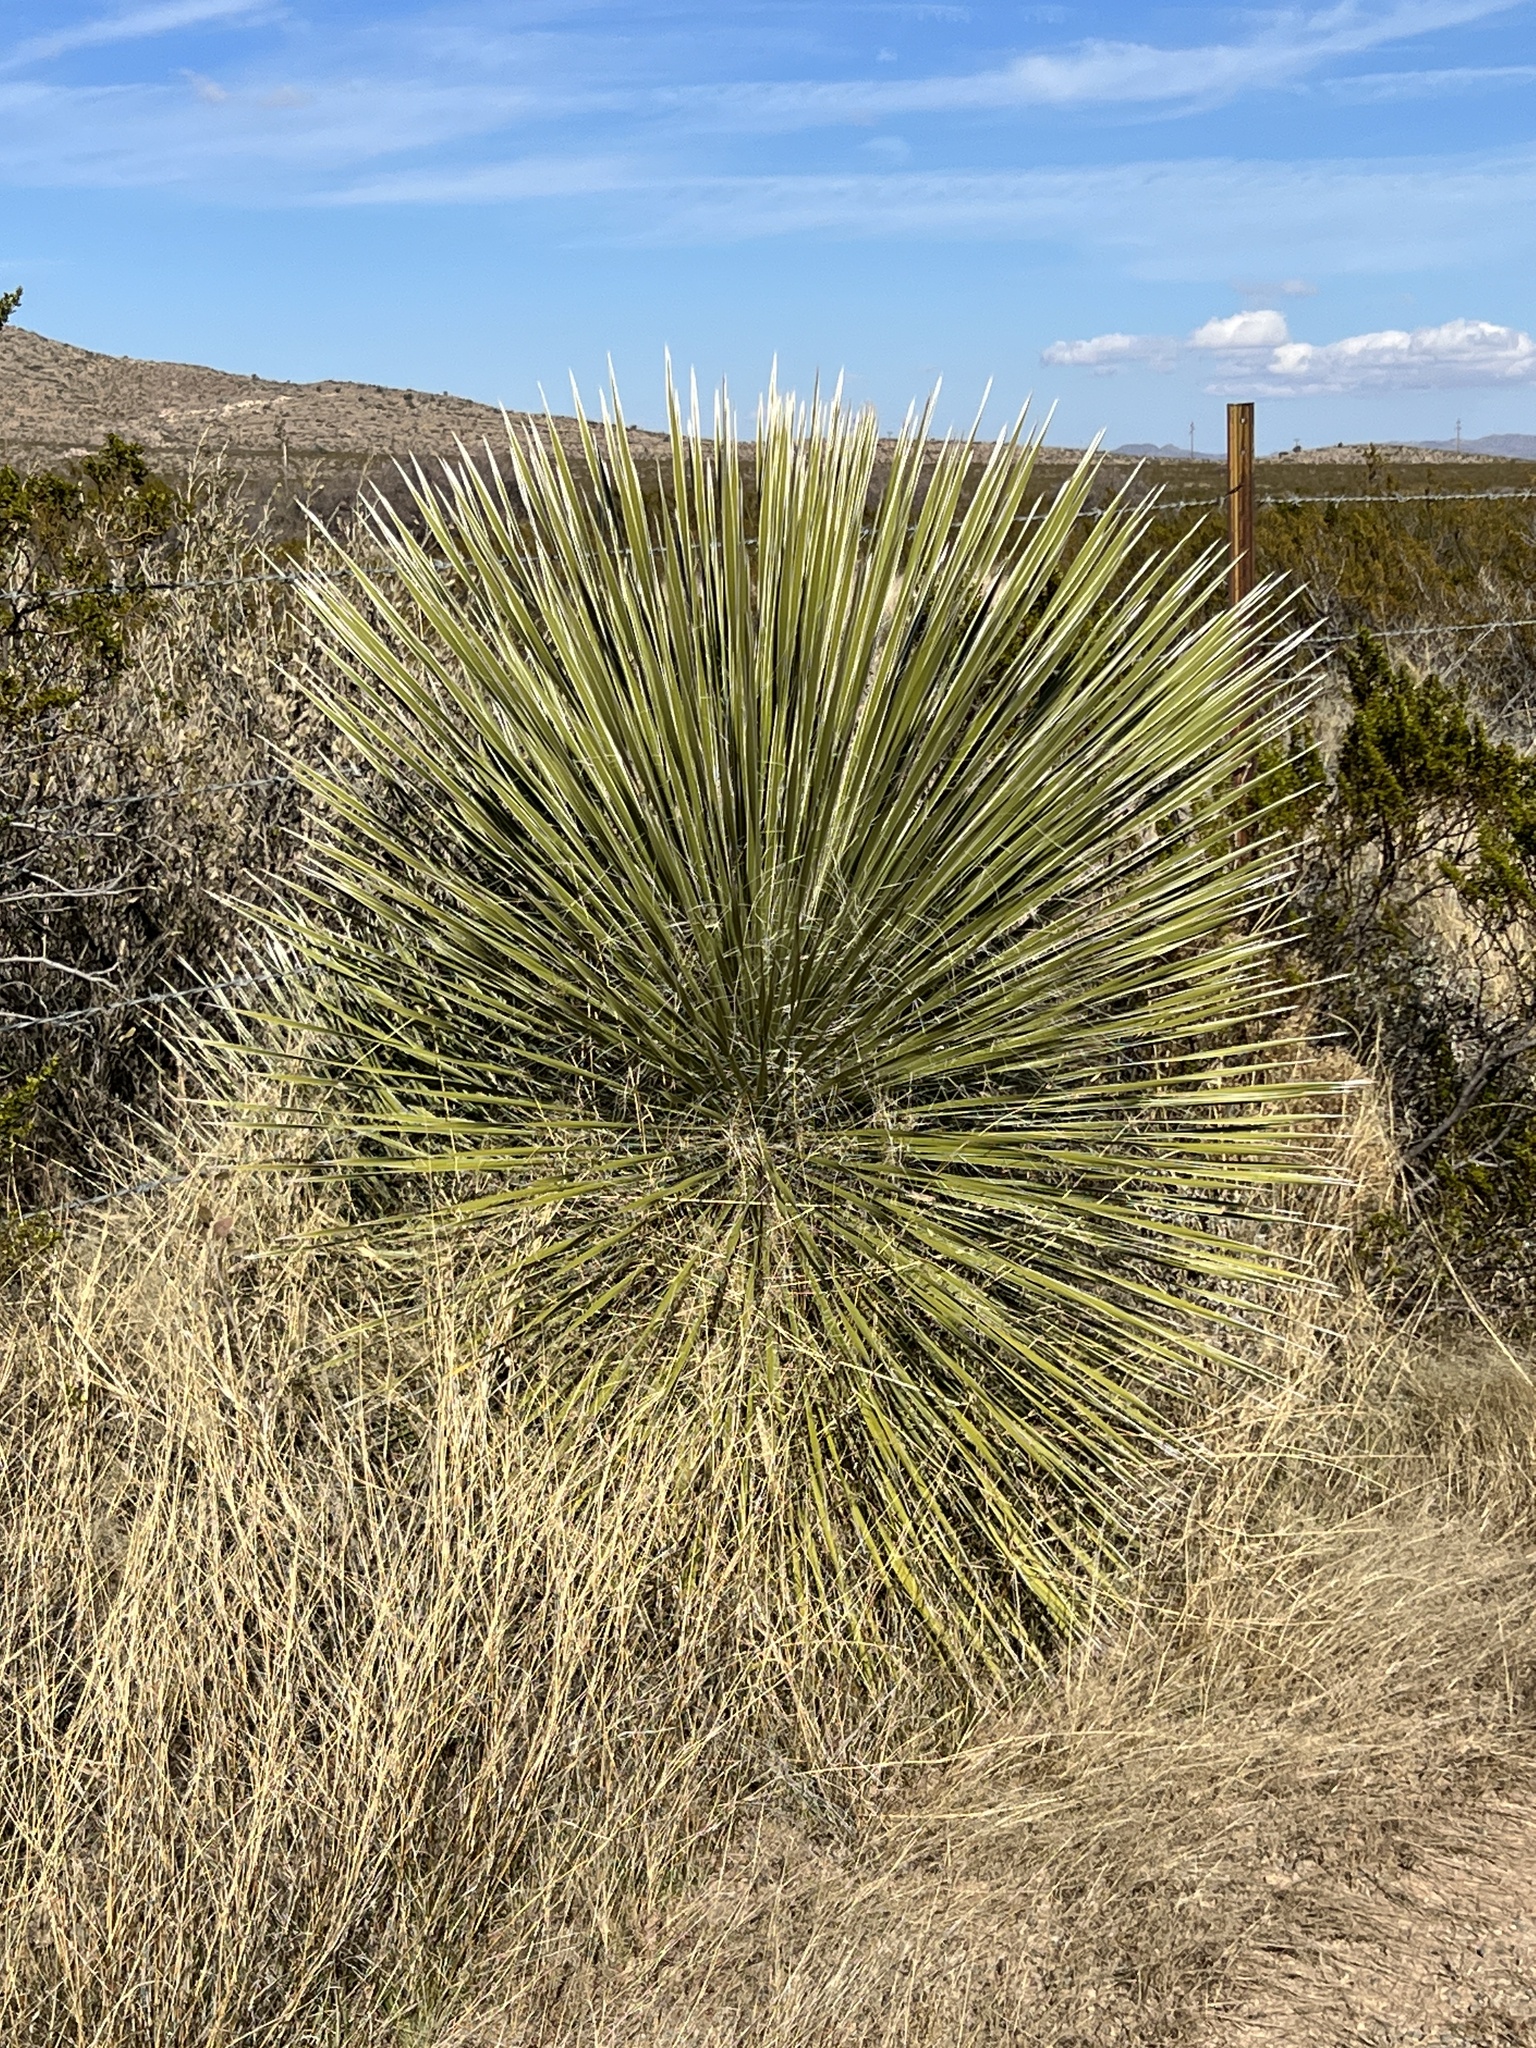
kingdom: Plantae
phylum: Tracheophyta
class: Liliopsida
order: Asparagales
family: Asparagaceae
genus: Yucca
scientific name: Yucca elata
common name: Palmella
